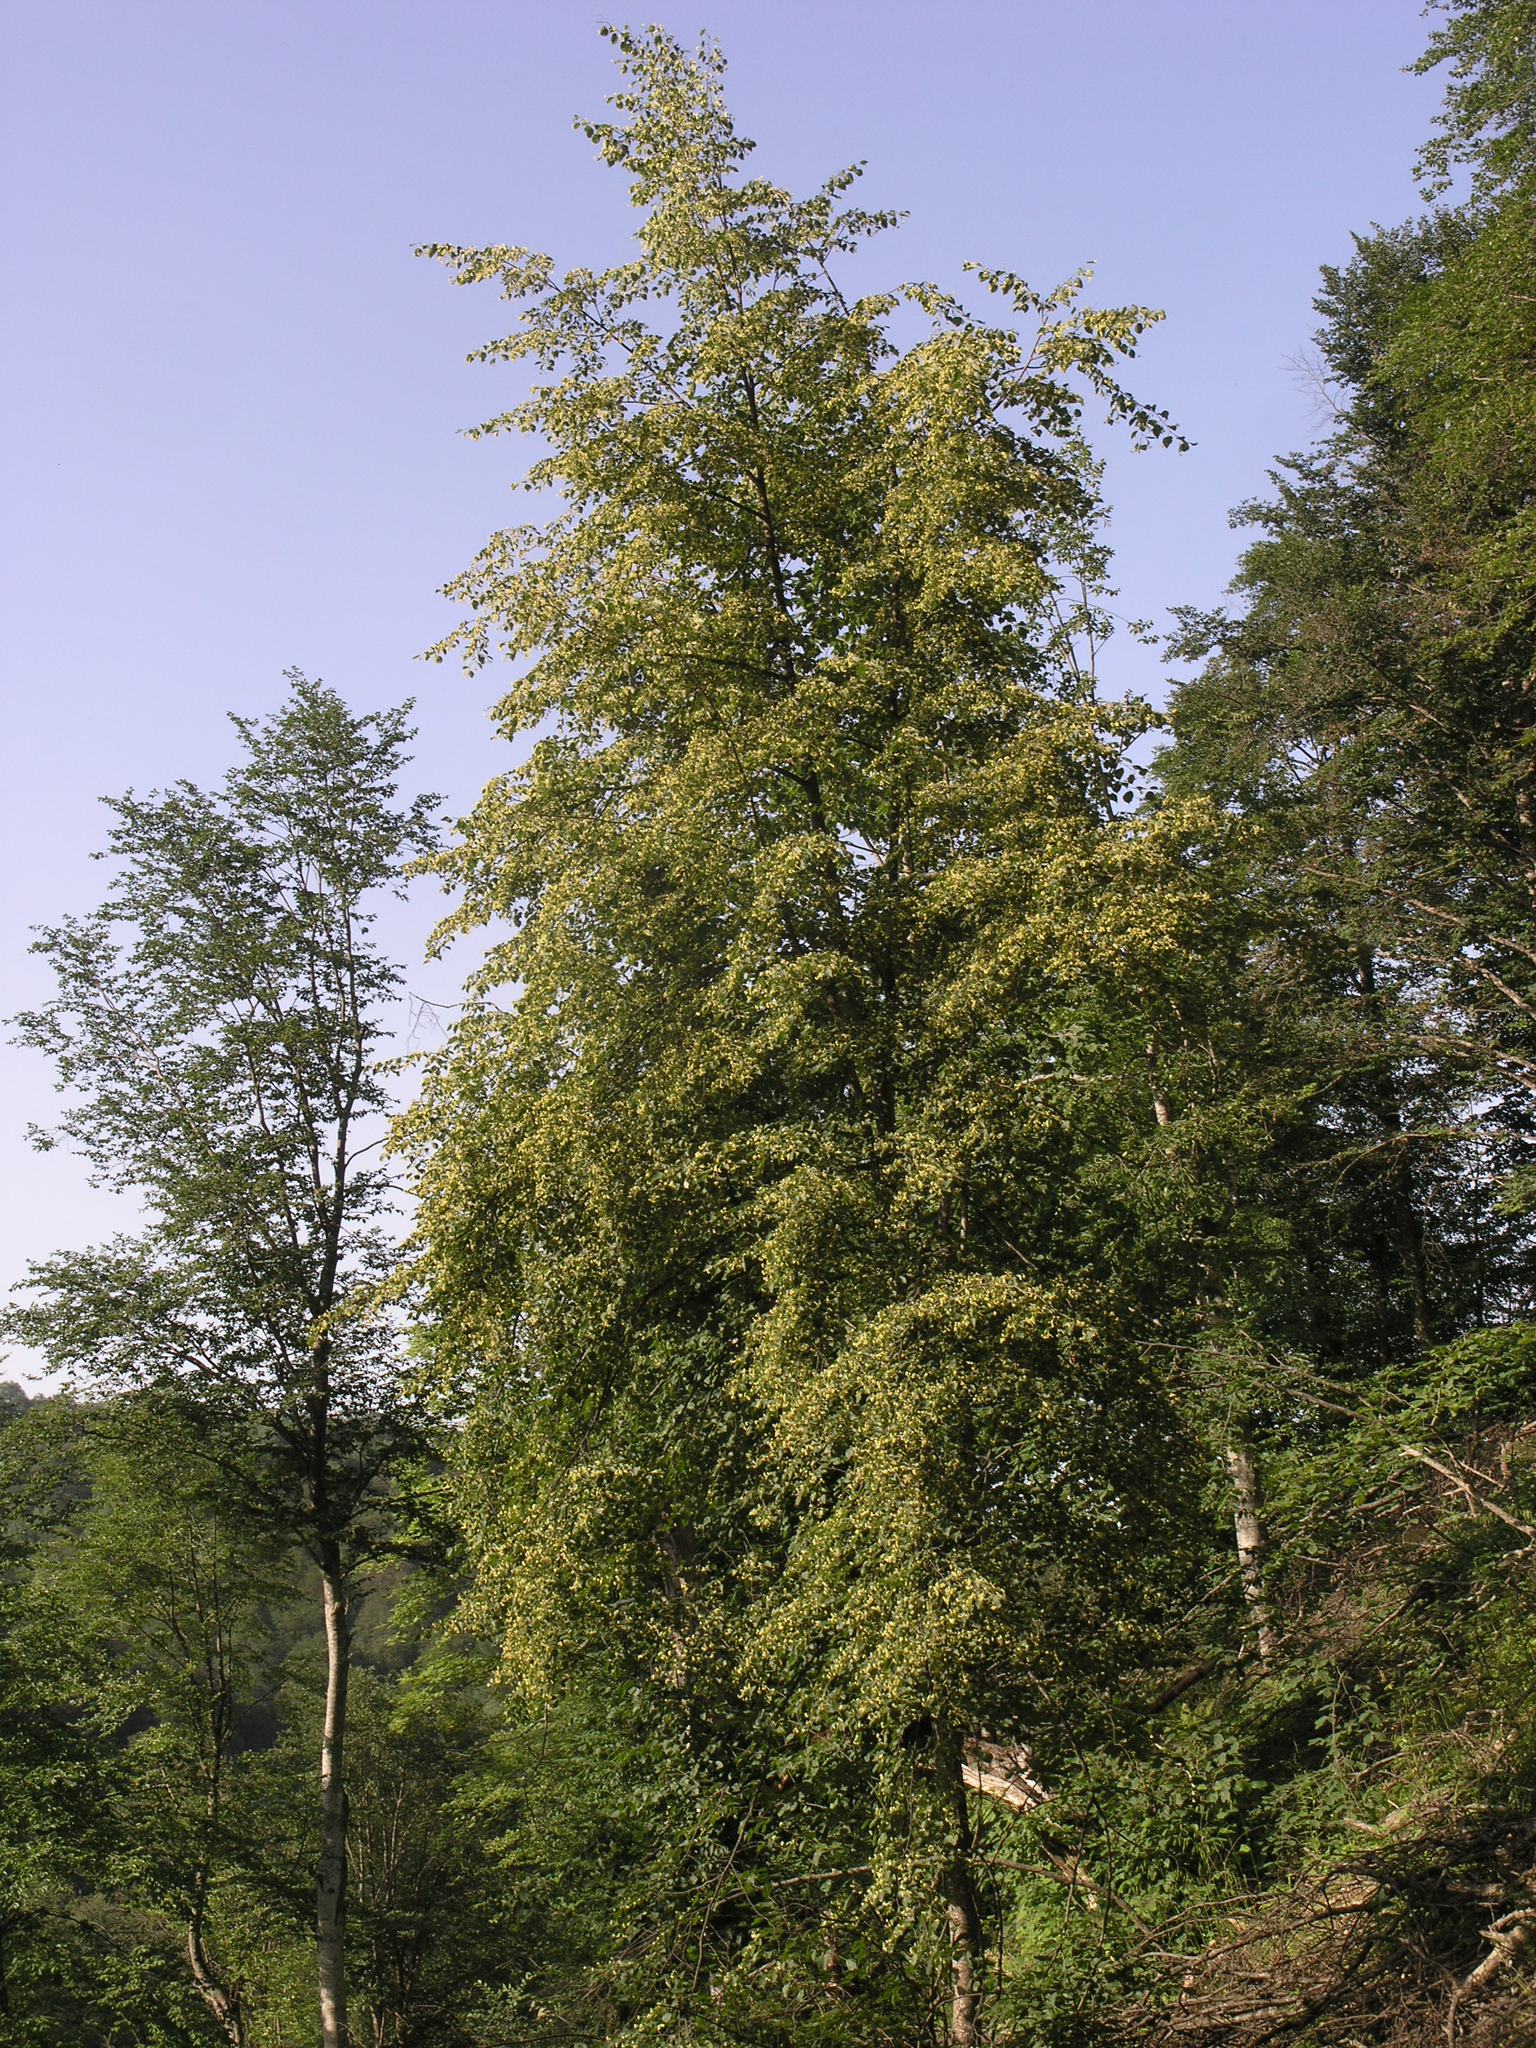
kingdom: Plantae
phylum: Tracheophyta
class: Magnoliopsida
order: Malvales
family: Malvaceae
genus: Tilia
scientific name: Tilia cordata
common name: Small-leaved lime
